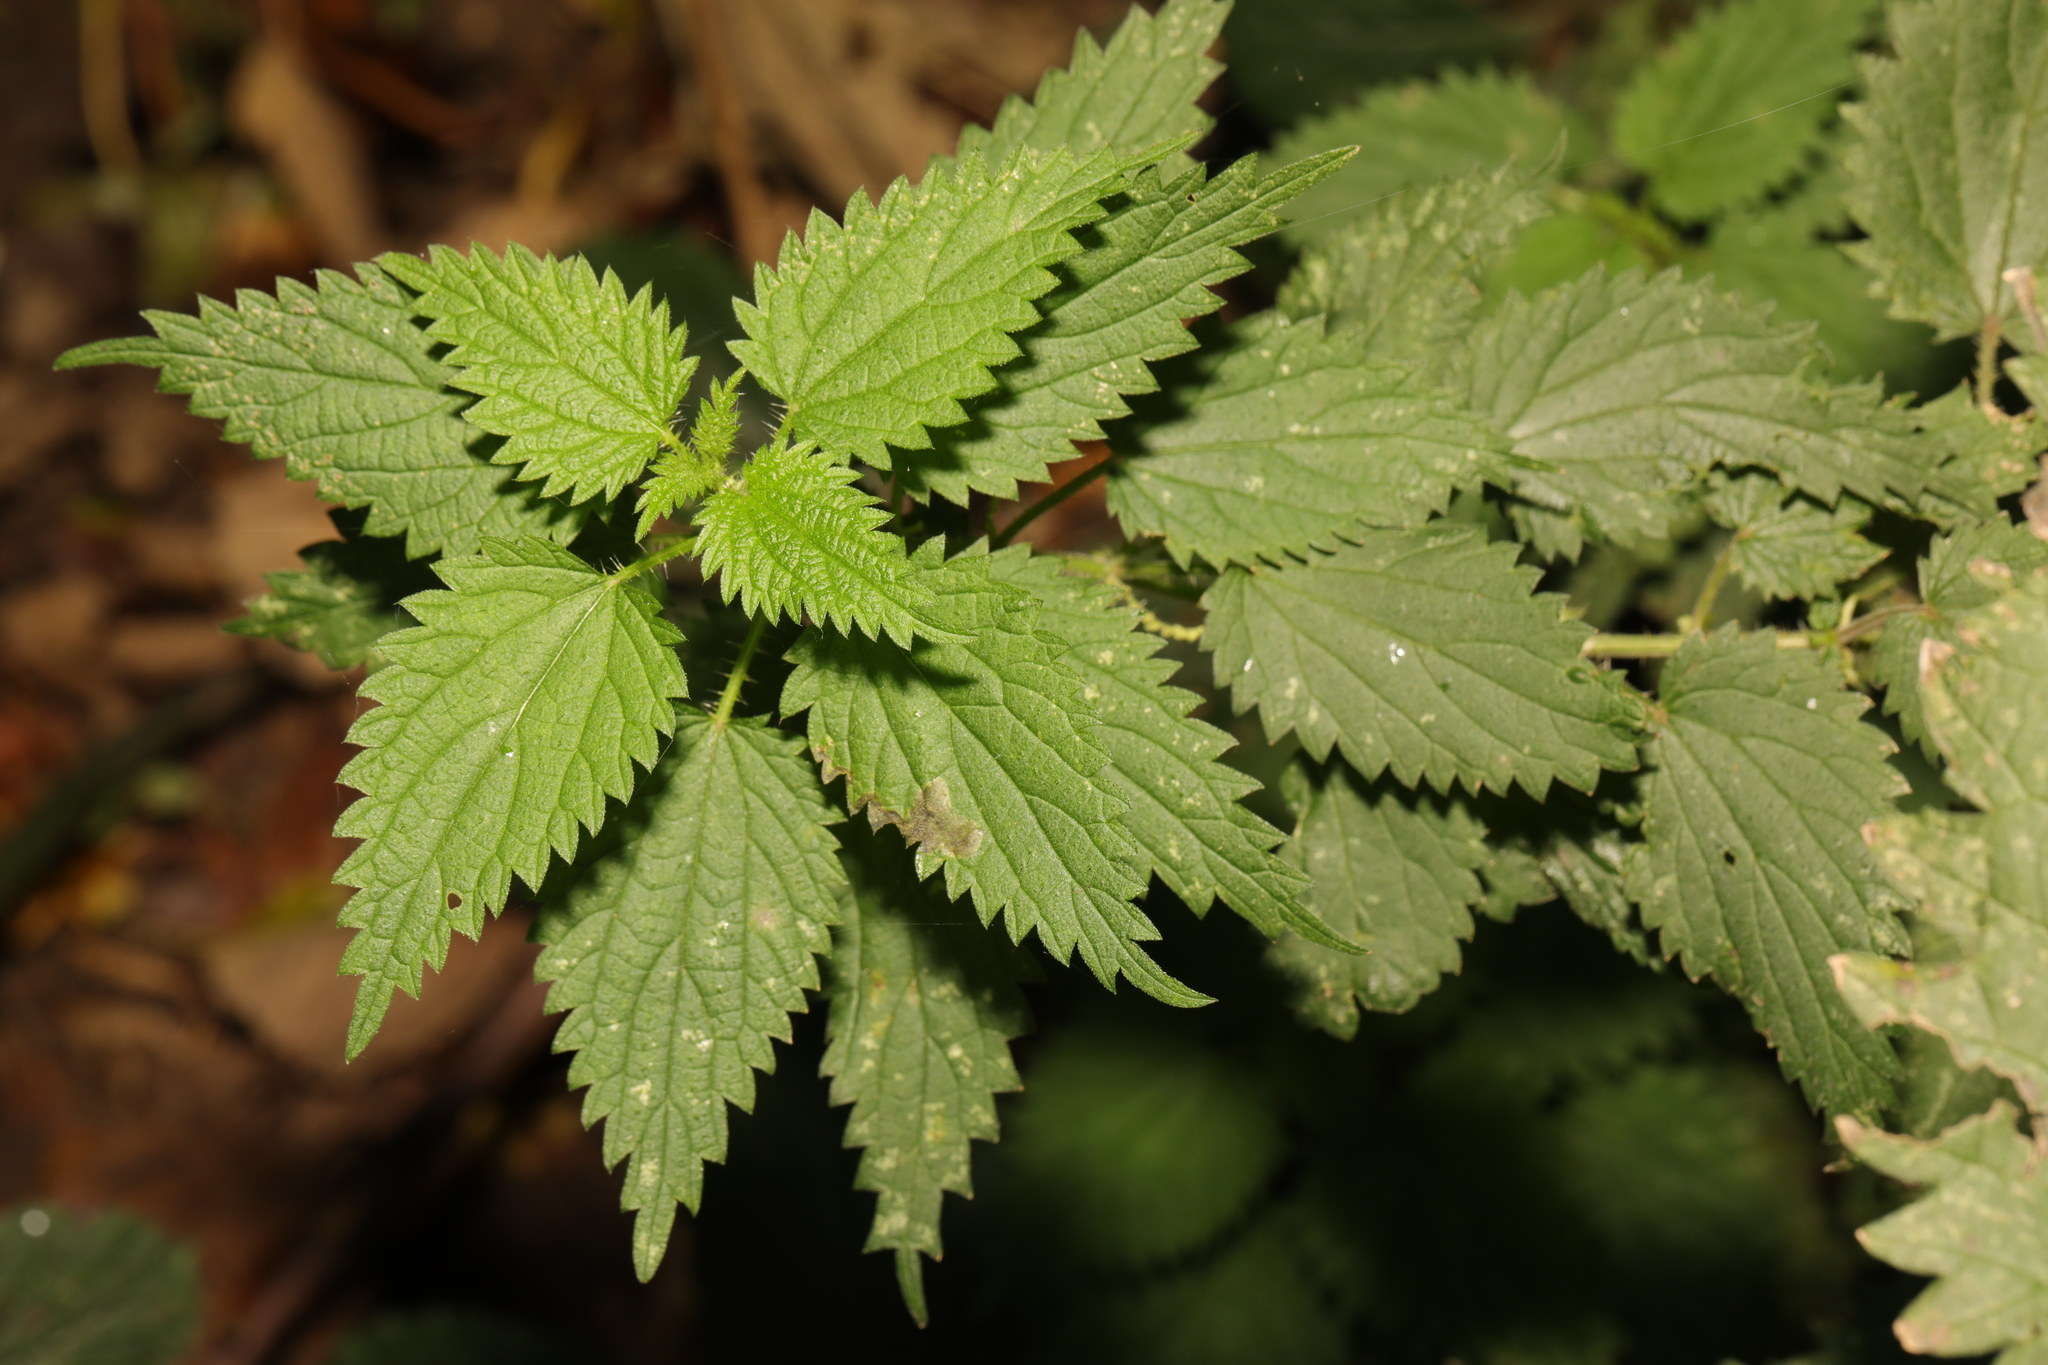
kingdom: Plantae
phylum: Tracheophyta
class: Magnoliopsida
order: Rosales
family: Urticaceae
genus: Urtica
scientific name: Urtica dioica
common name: Common nettle
